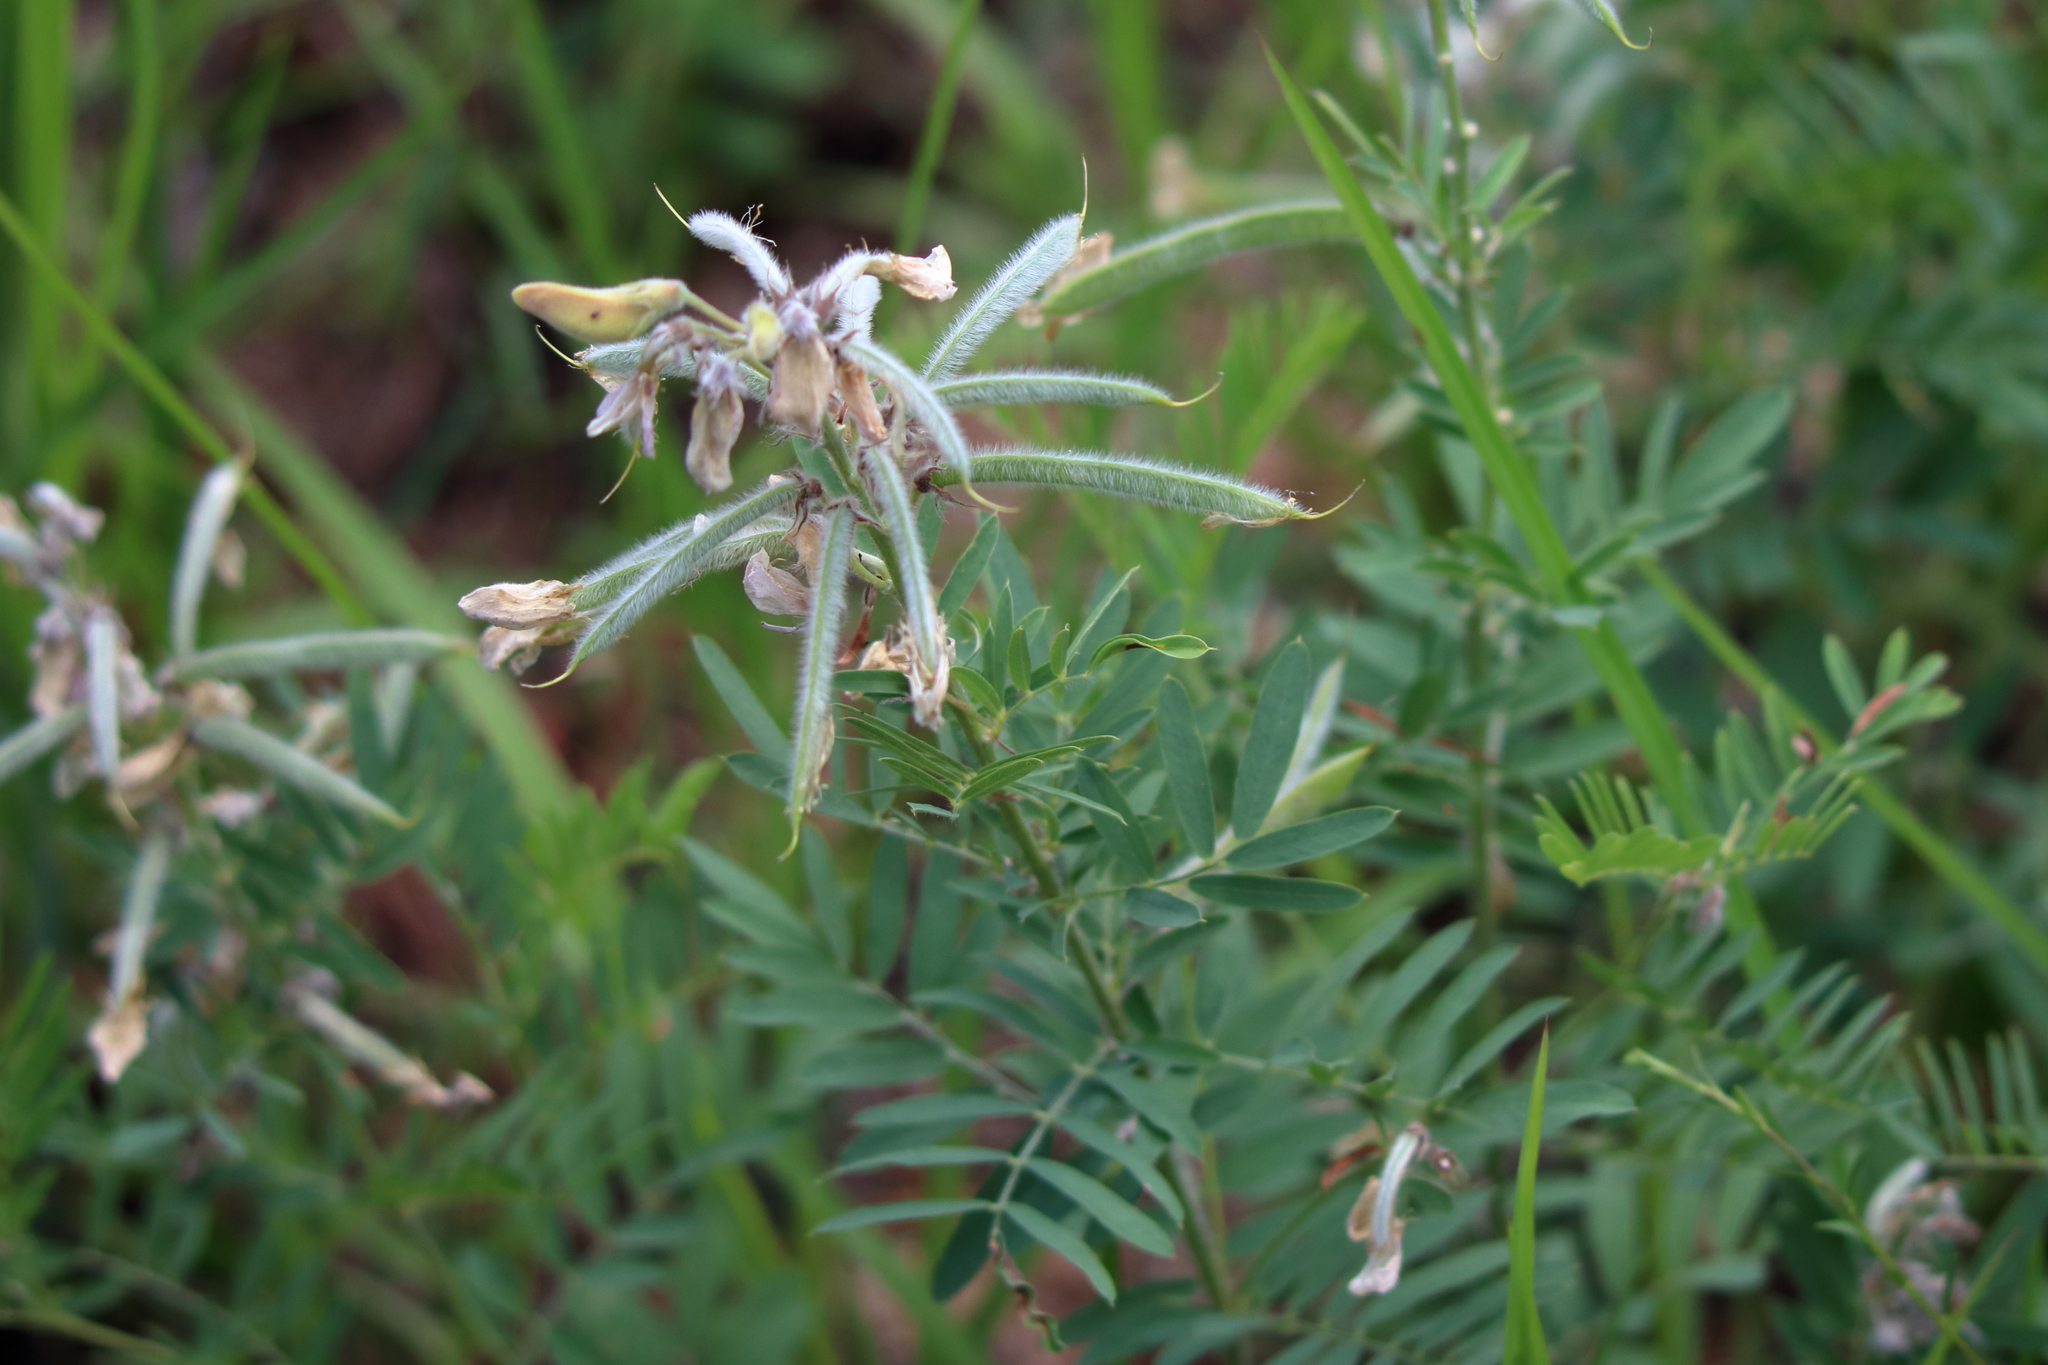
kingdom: Plantae
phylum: Tracheophyta
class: Magnoliopsida
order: Fabales
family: Fabaceae
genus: Tephrosia
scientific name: Tephrosia virginiana
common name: Rabbit-pea
